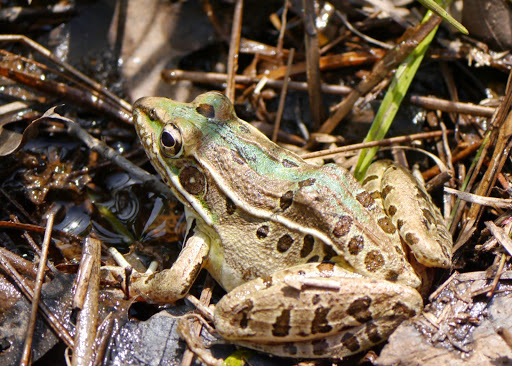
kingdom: Animalia
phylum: Chordata
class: Amphibia
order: Anura
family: Ranidae
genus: Lithobates
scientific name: Lithobates sphenocephalus
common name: Southern leopard frog
